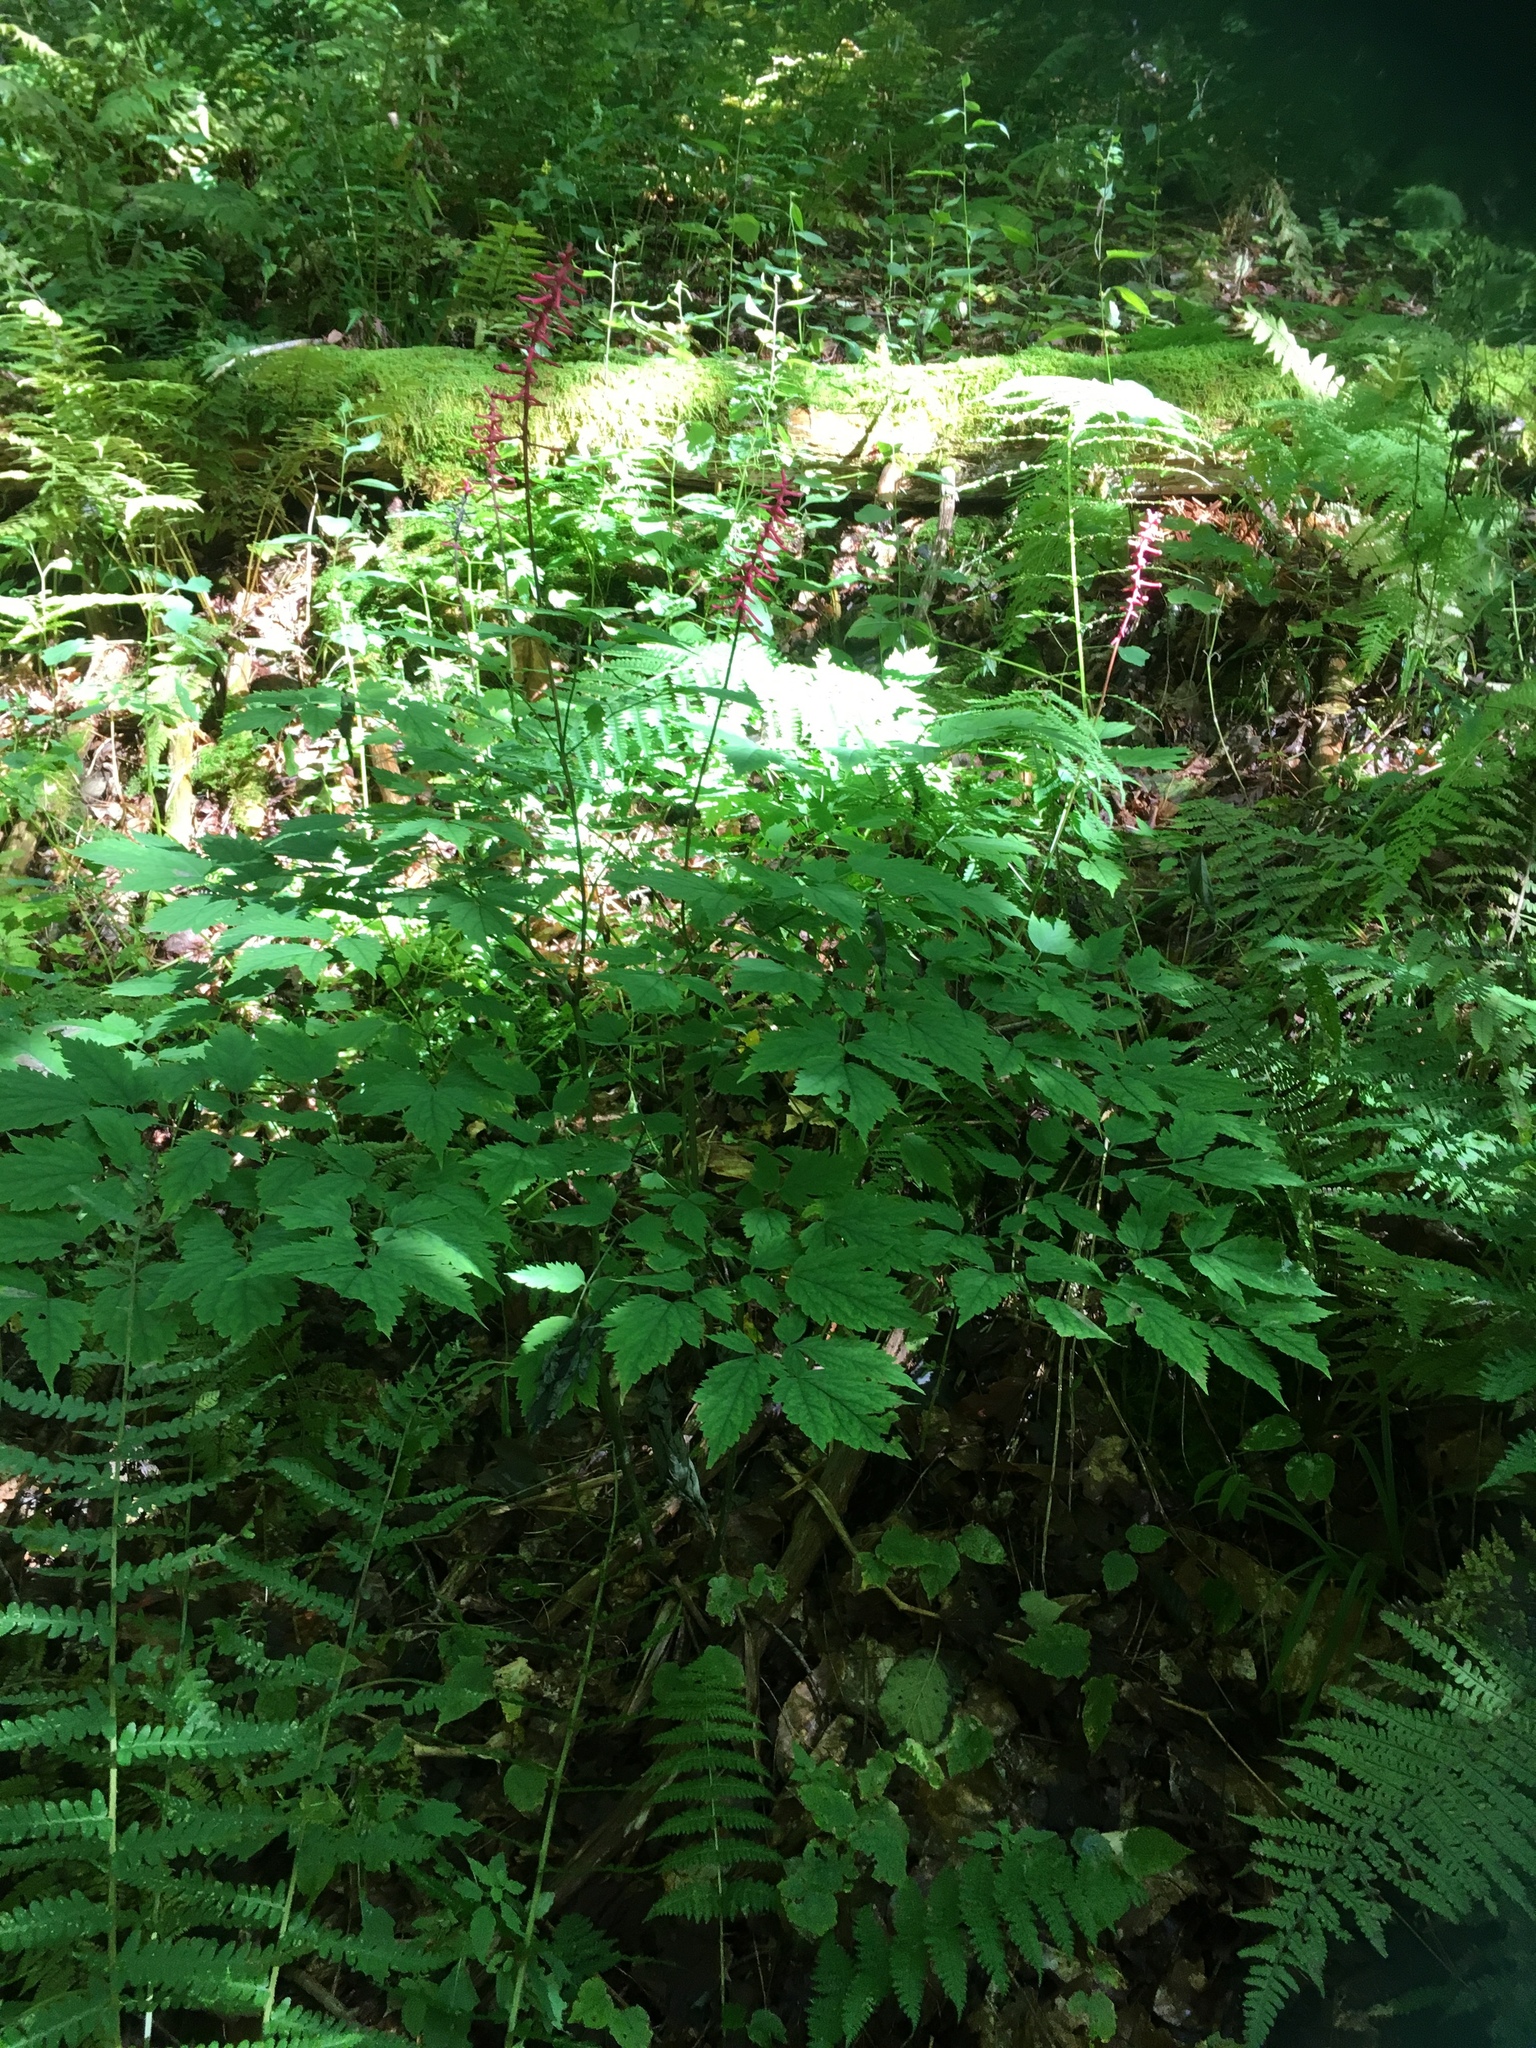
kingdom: Plantae
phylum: Tracheophyta
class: Magnoliopsida
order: Ranunculales
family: Ranunculaceae
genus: Actaea
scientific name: Actaea pachypoda
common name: Doll's-eyes
